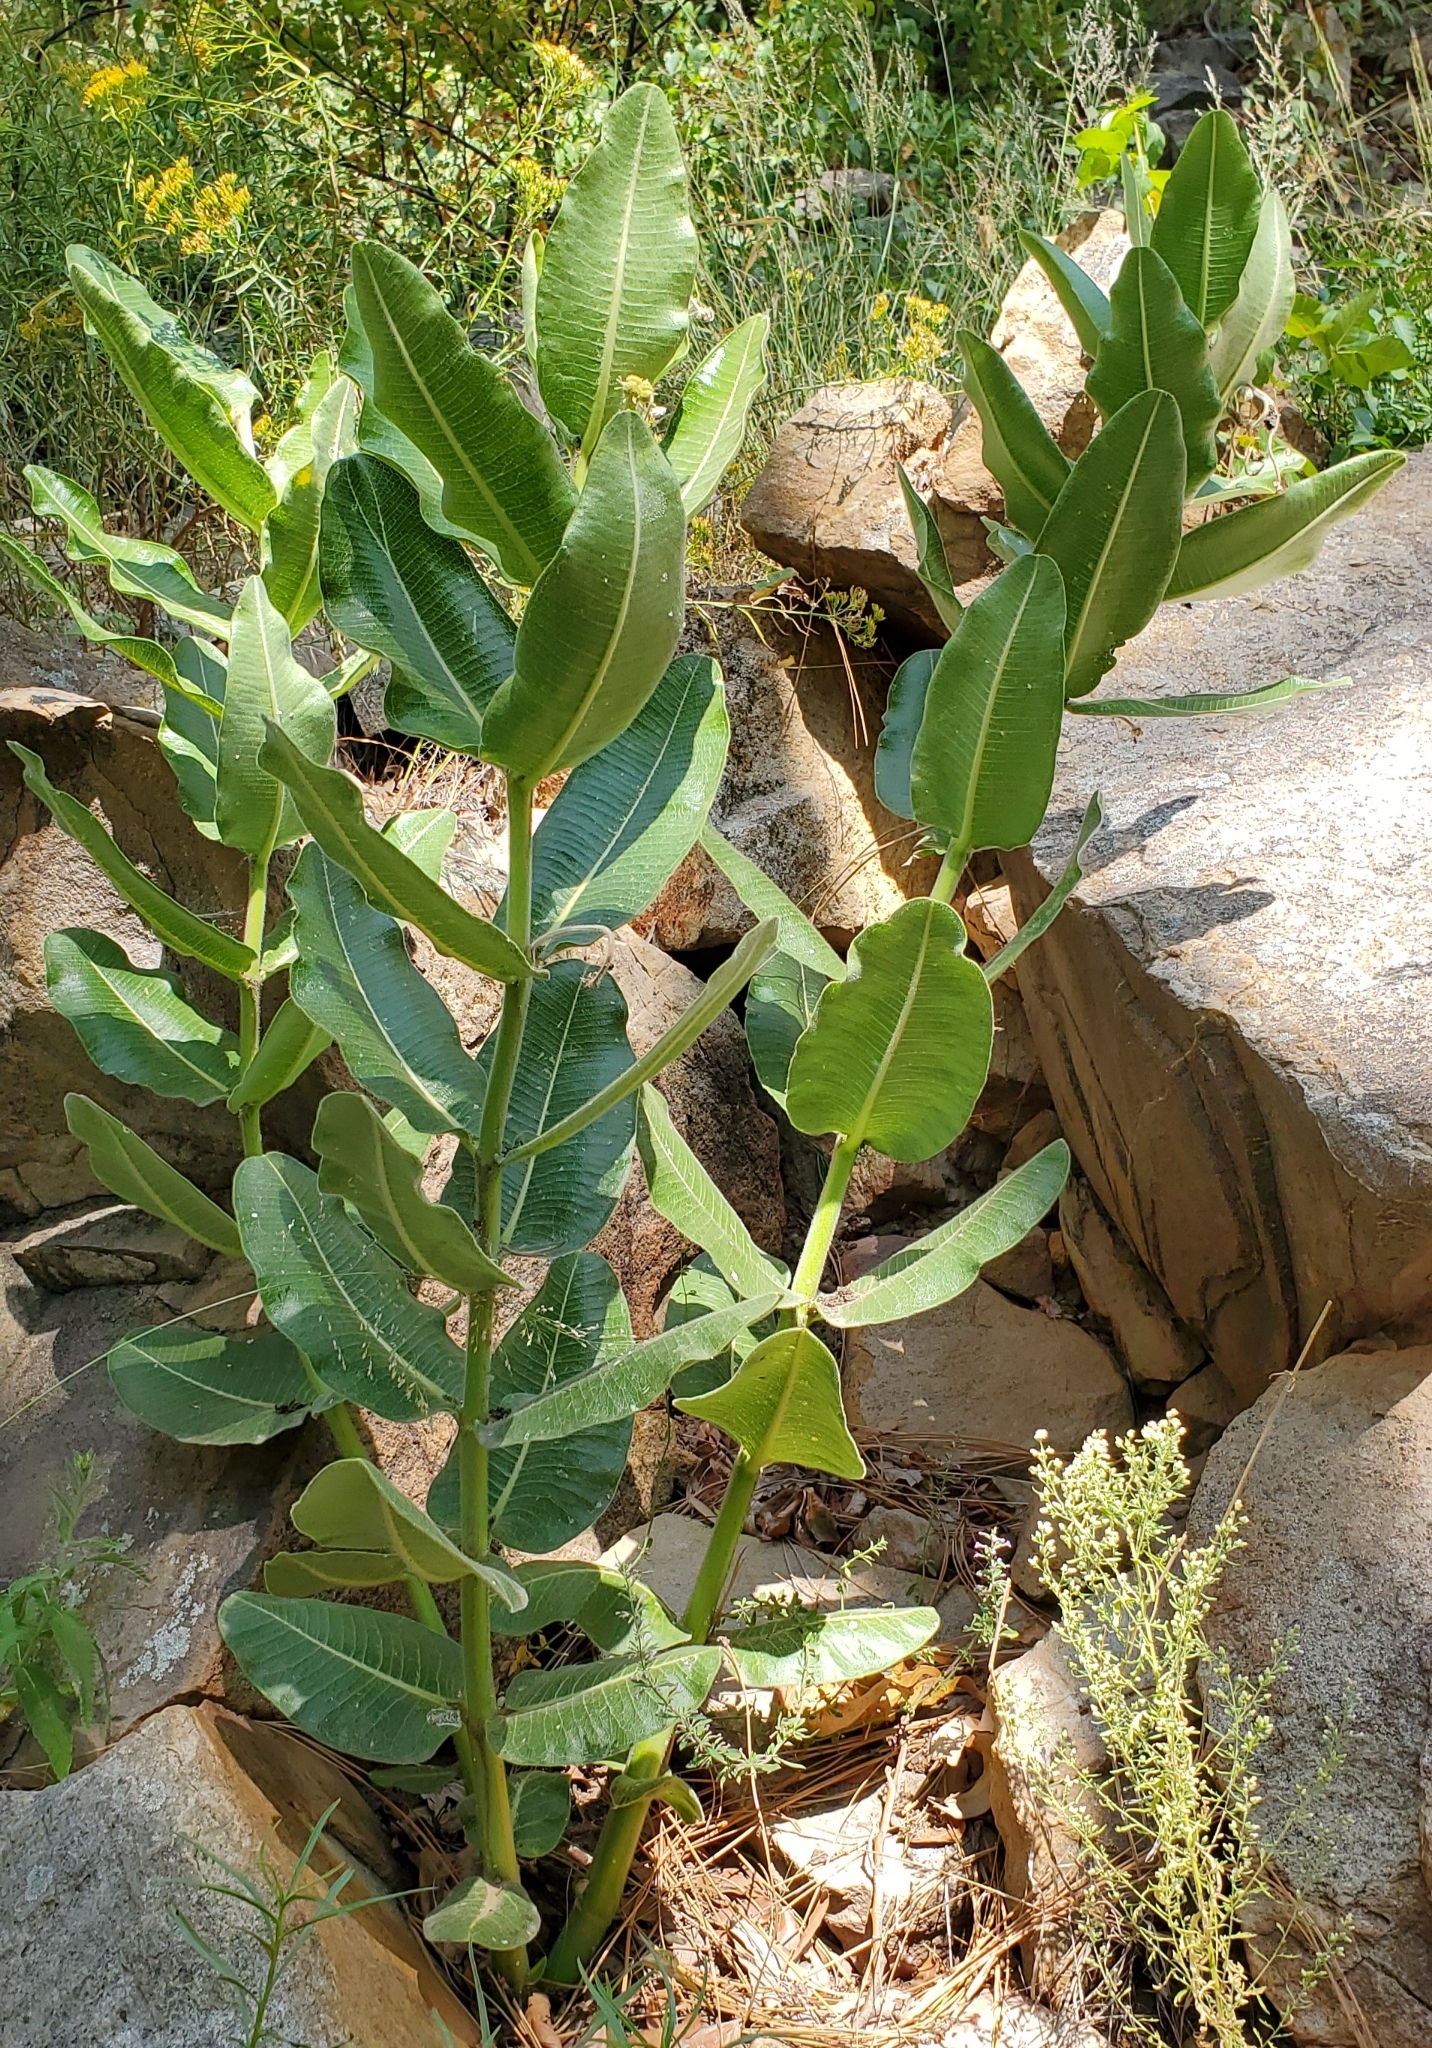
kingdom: Plantae
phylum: Tracheophyta
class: Magnoliopsida
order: Gentianales
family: Apocynaceae
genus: Asclepias
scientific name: Asclepias lemmonii
